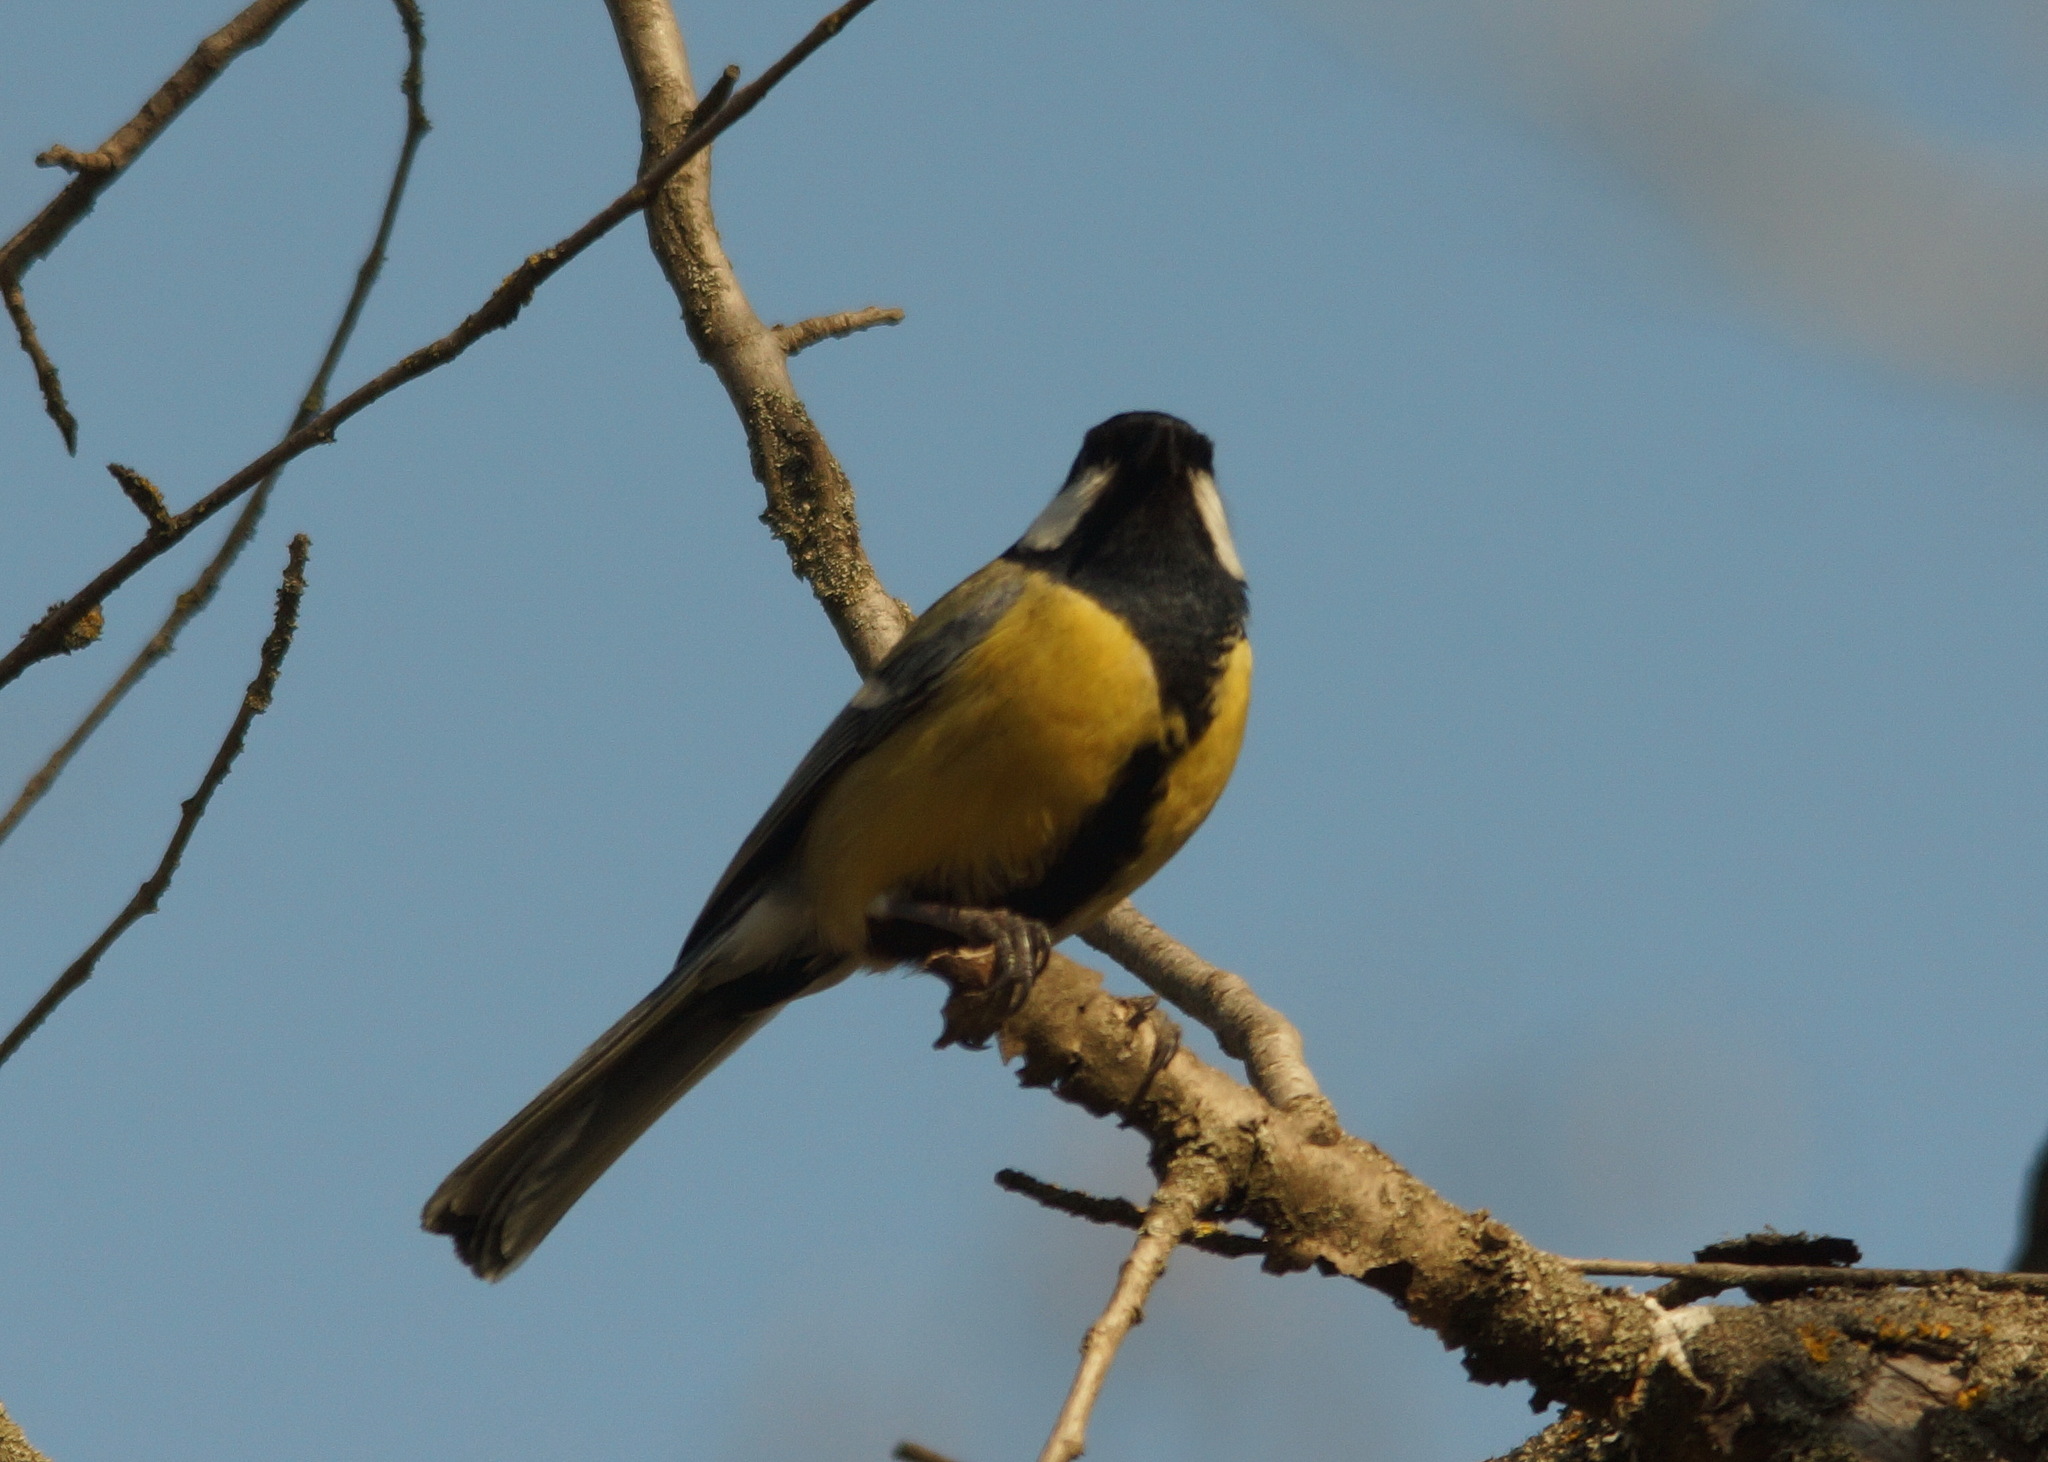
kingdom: Animalia
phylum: Chordata
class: Aves
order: Passeriformes
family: Paridae
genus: Parus
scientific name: Parus major
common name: Great tit
